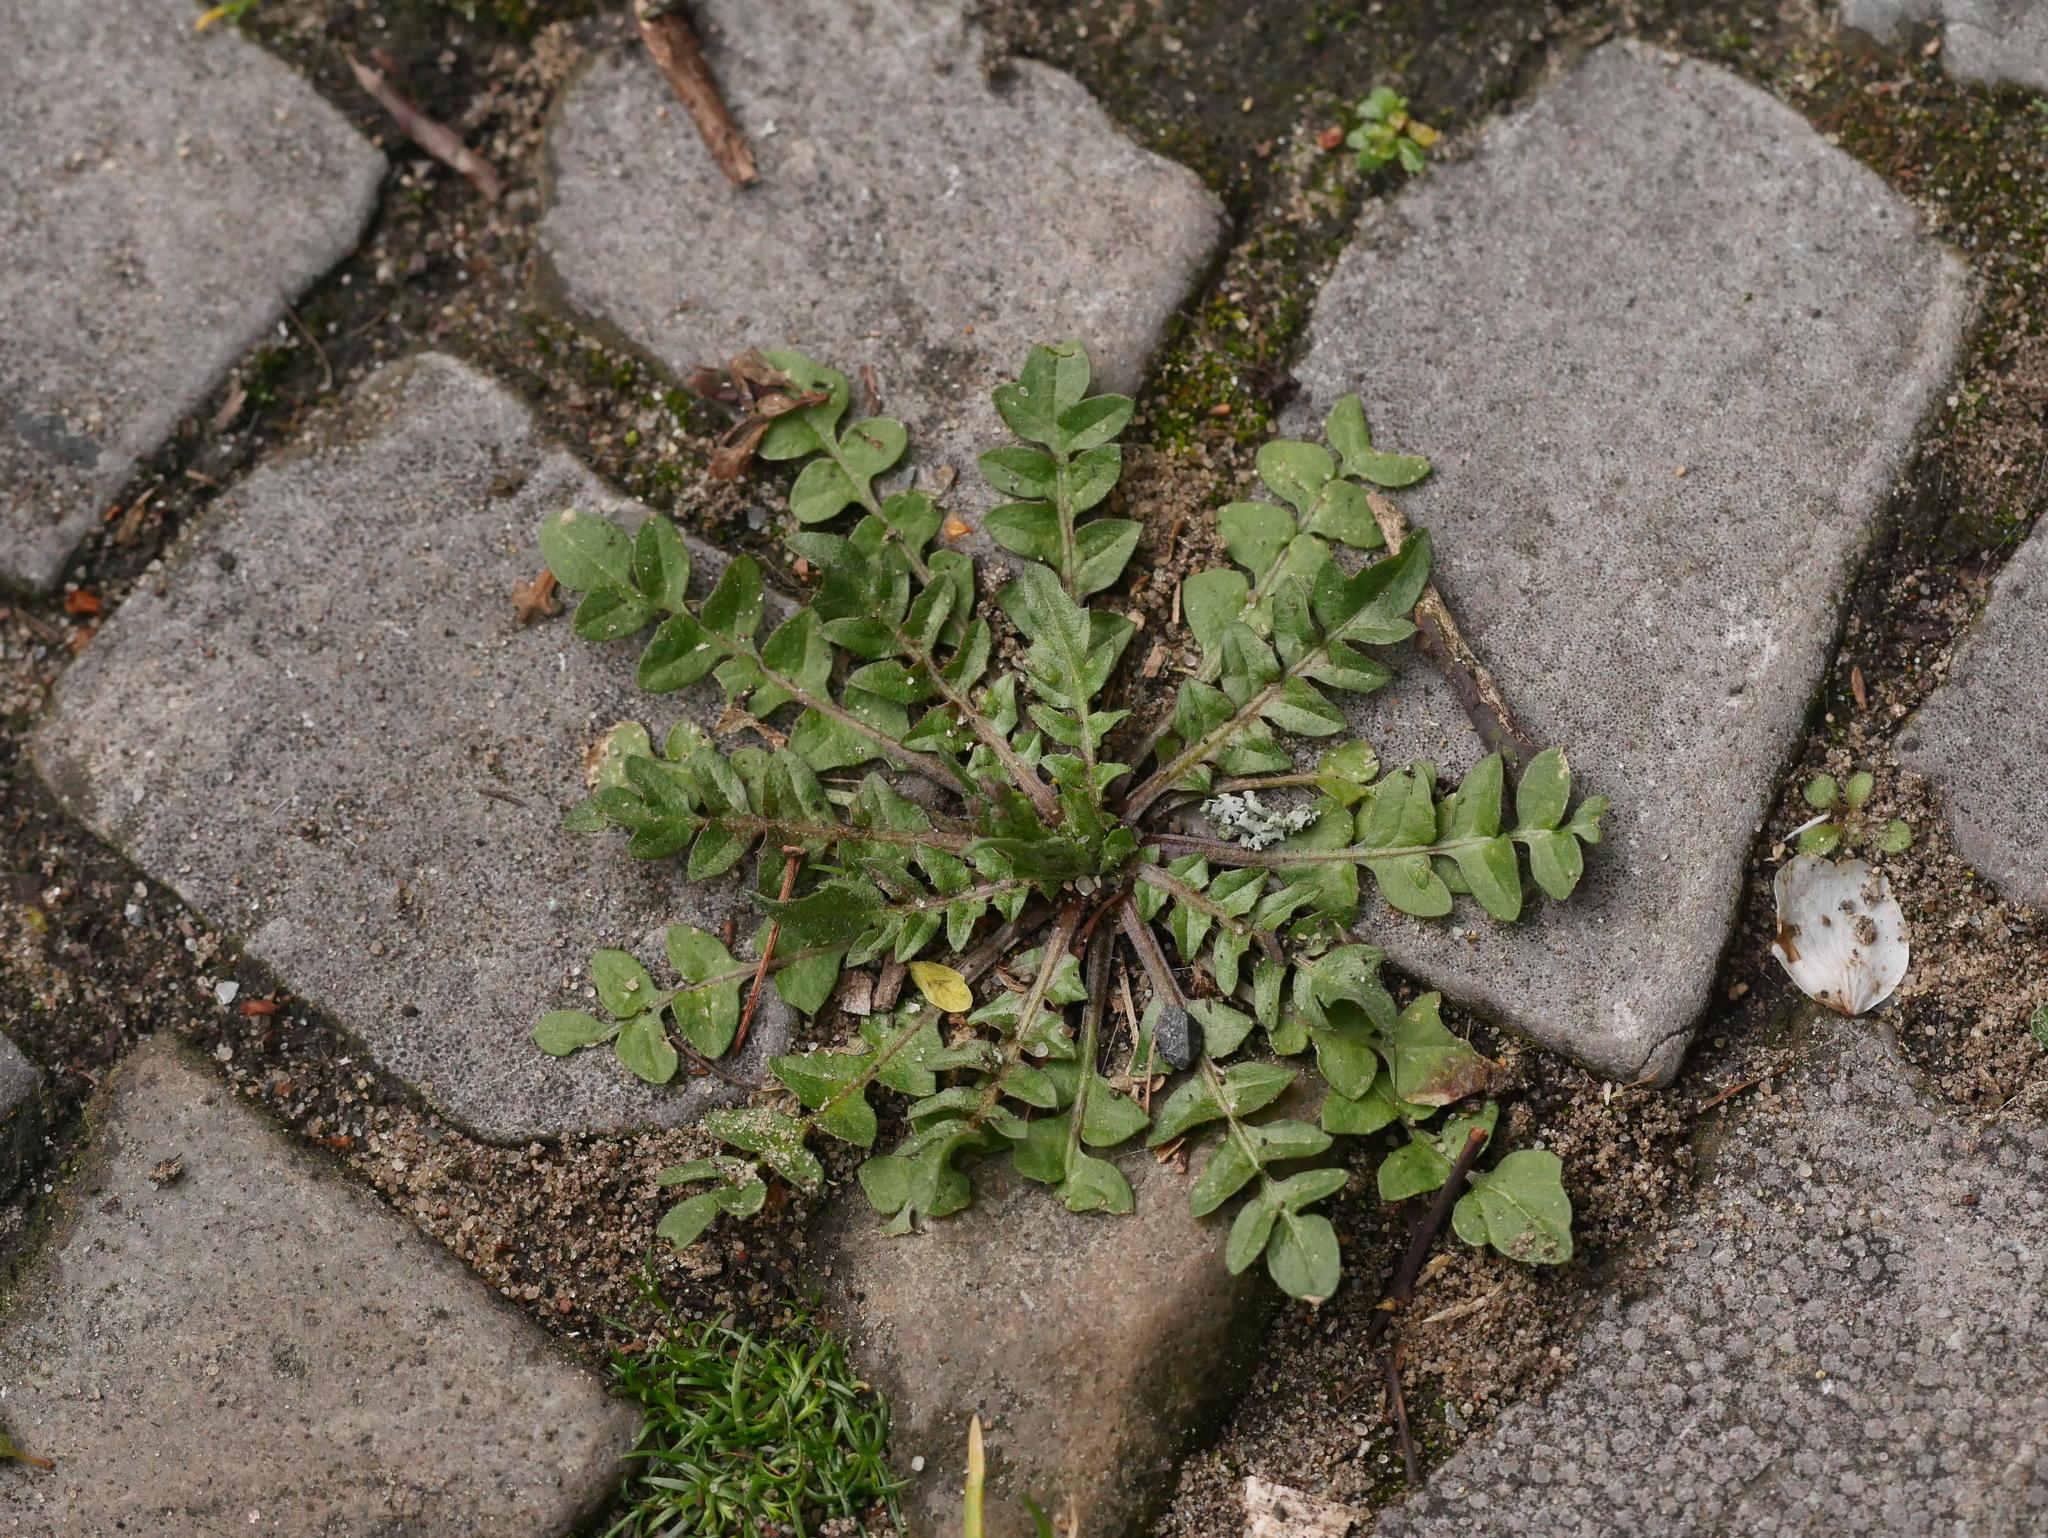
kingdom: Plantae
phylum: Tracheophyta
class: Magnoliopsida
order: Brassicales
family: Brassicaceae
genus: Capsella
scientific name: Capsella bursa-pastoris
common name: Shepherd's purse
